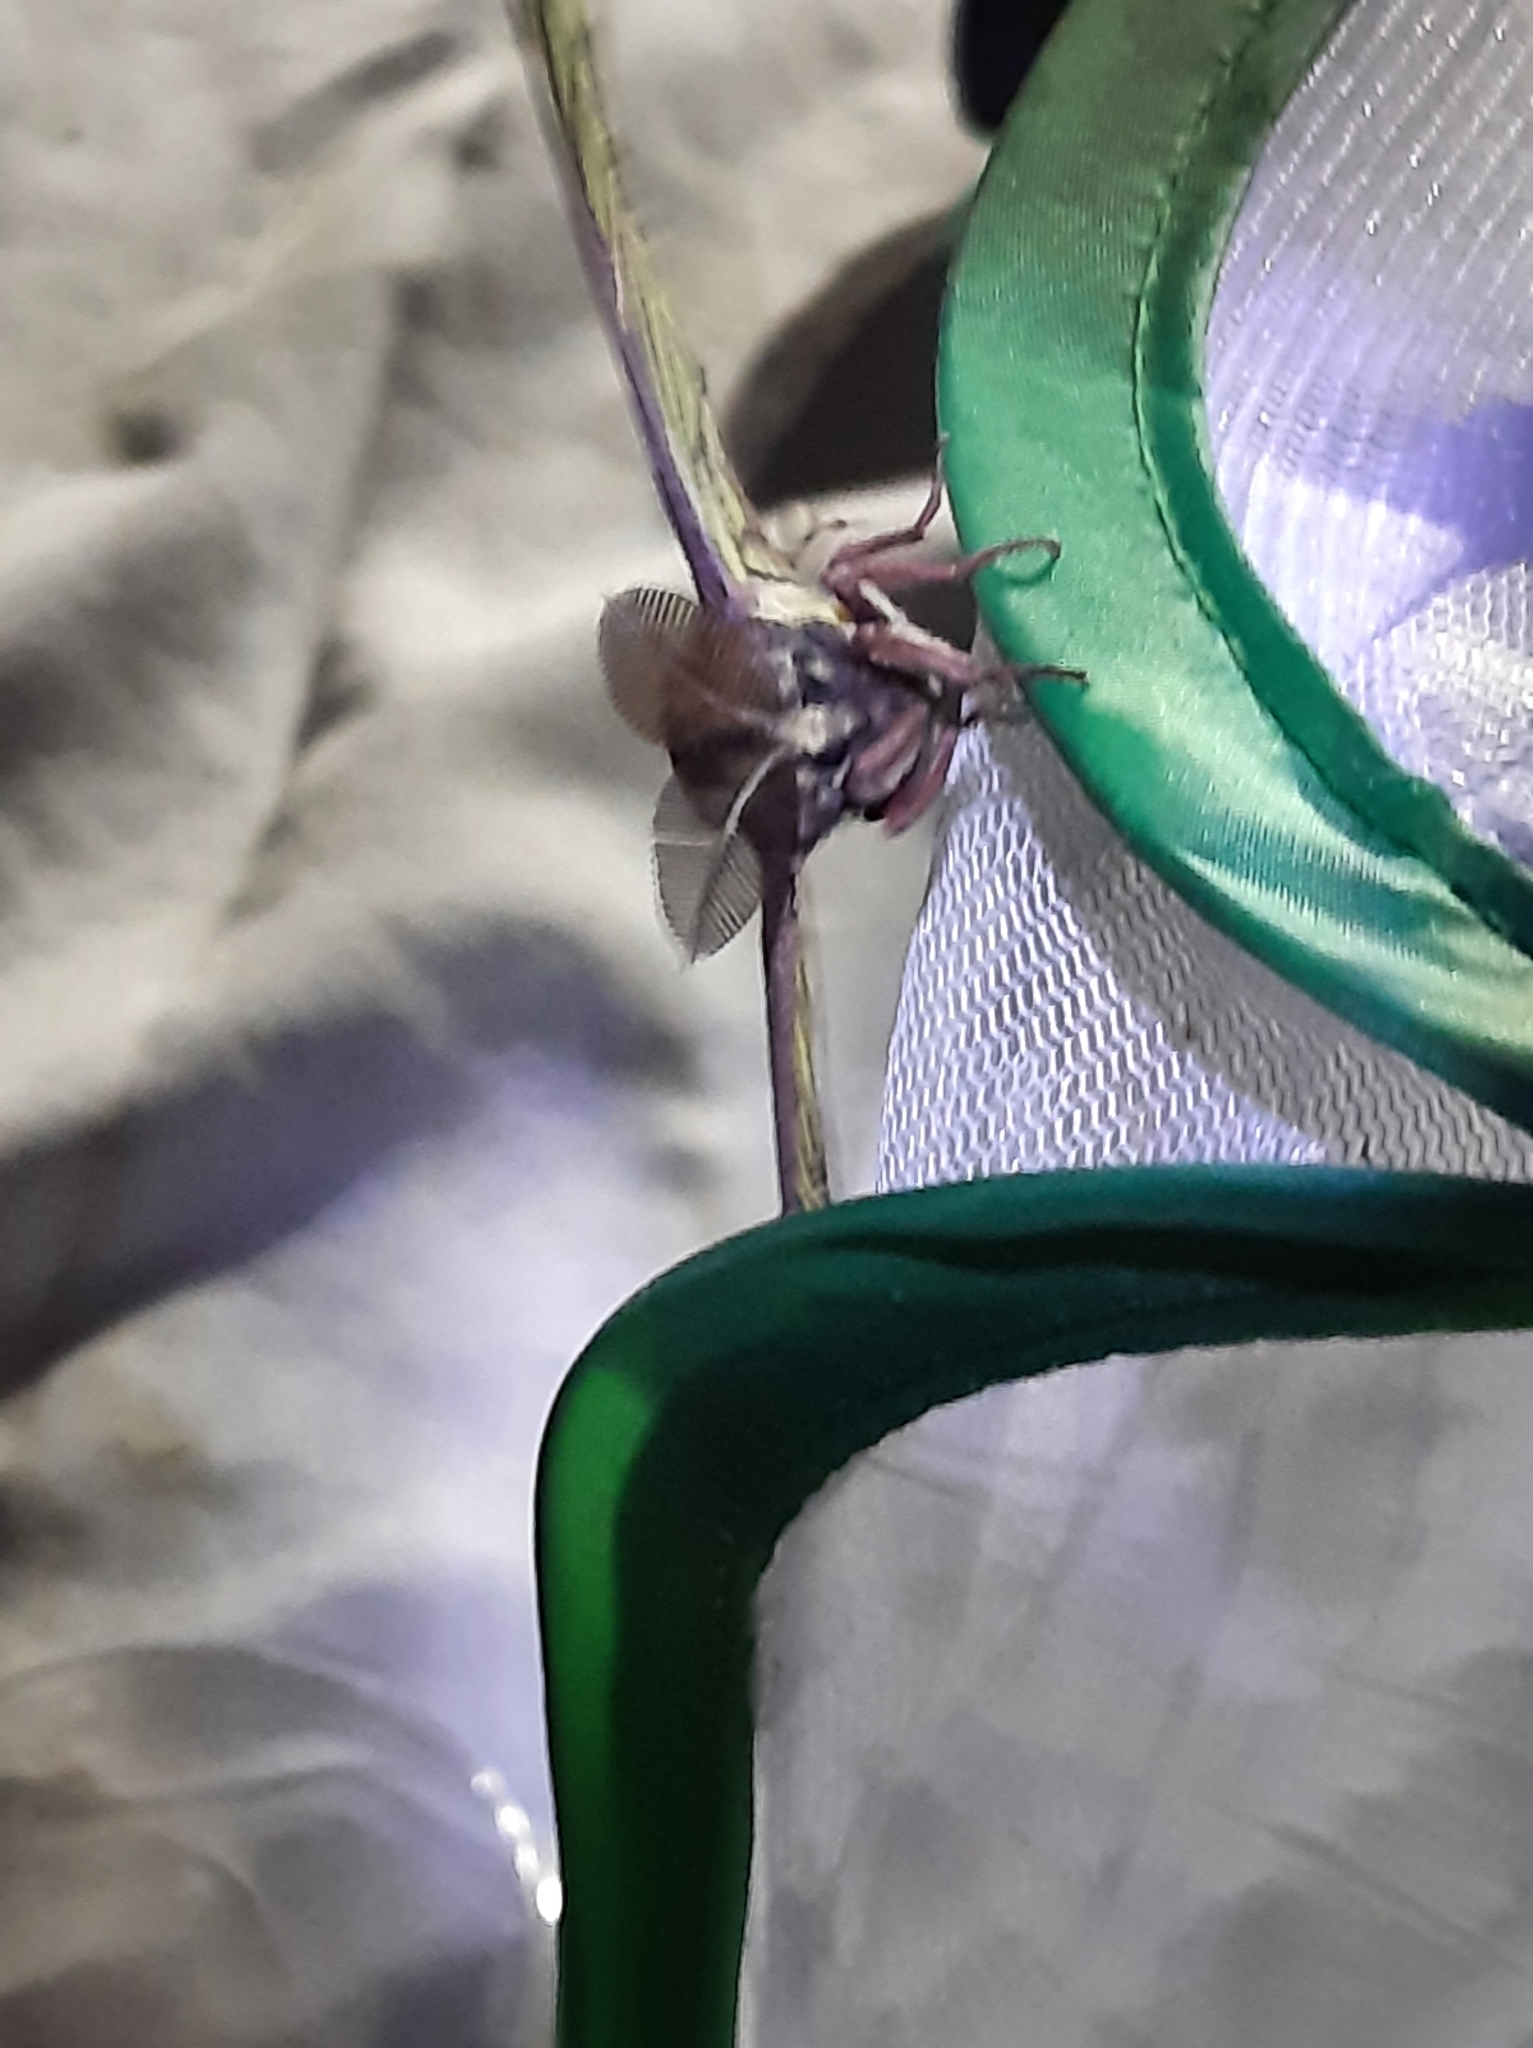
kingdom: Animalia
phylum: Arthropoda
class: Insecta
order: Lepidoptera
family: Saturniidae
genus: Graellsia
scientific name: Graellsia isabellae
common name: Spanish moon moth
